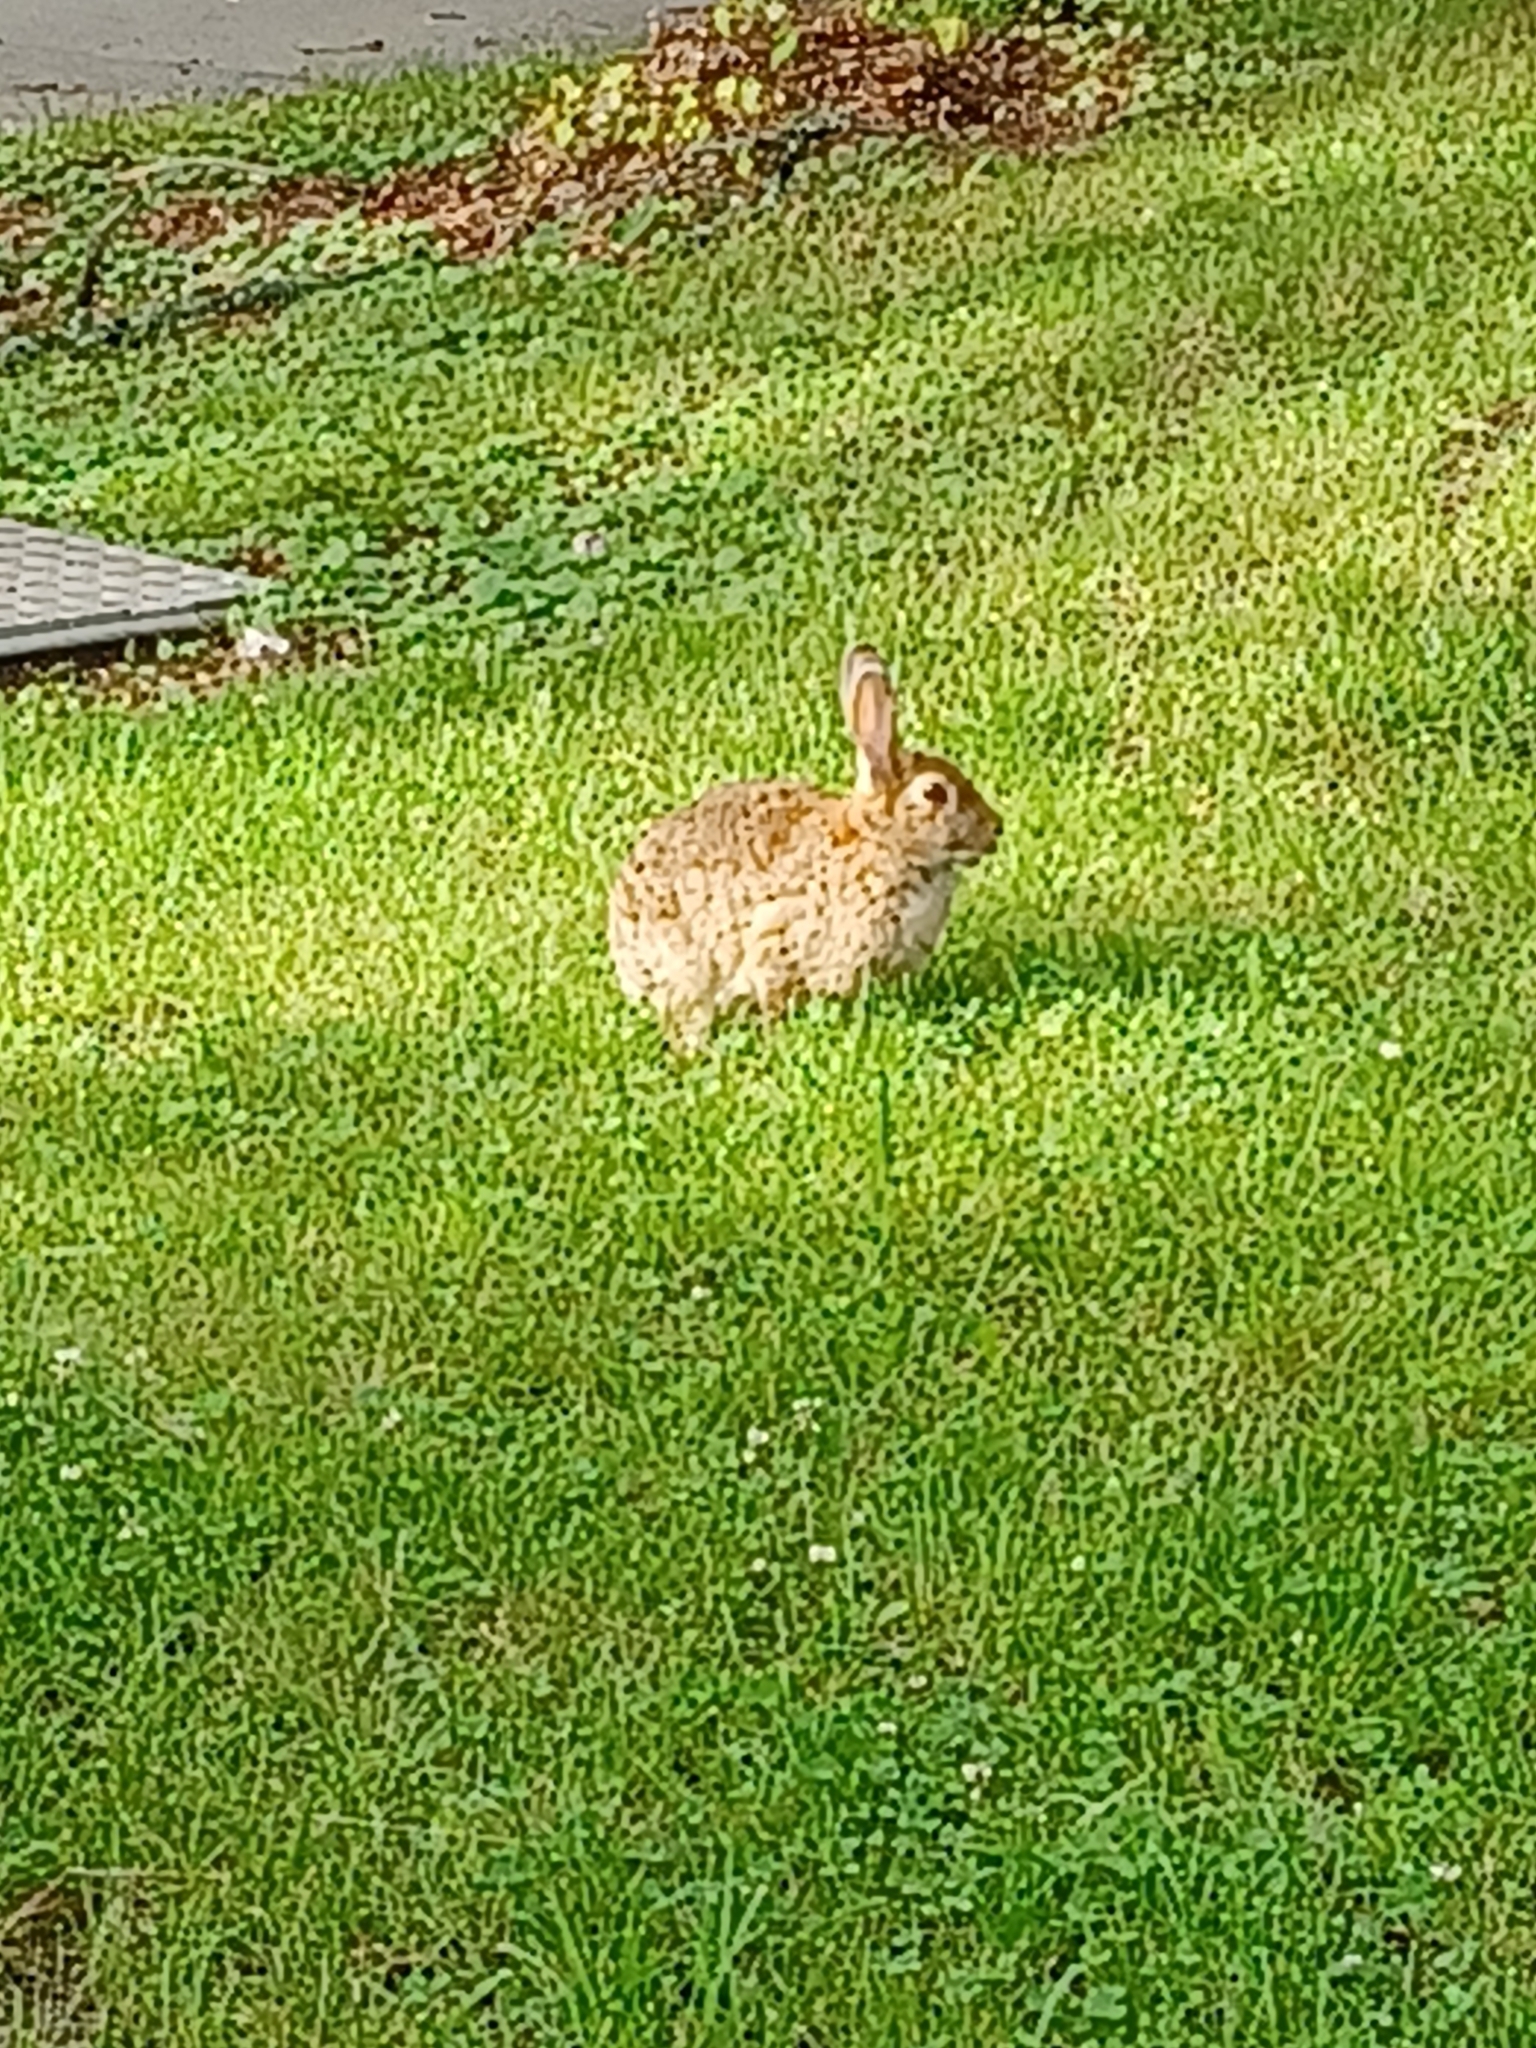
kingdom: Animalia
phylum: Chordata
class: Mammalia
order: Lagomorpha
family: Leporidae
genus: Oryctolagus
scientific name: Oryctolagus cuniculus
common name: European rabbit
